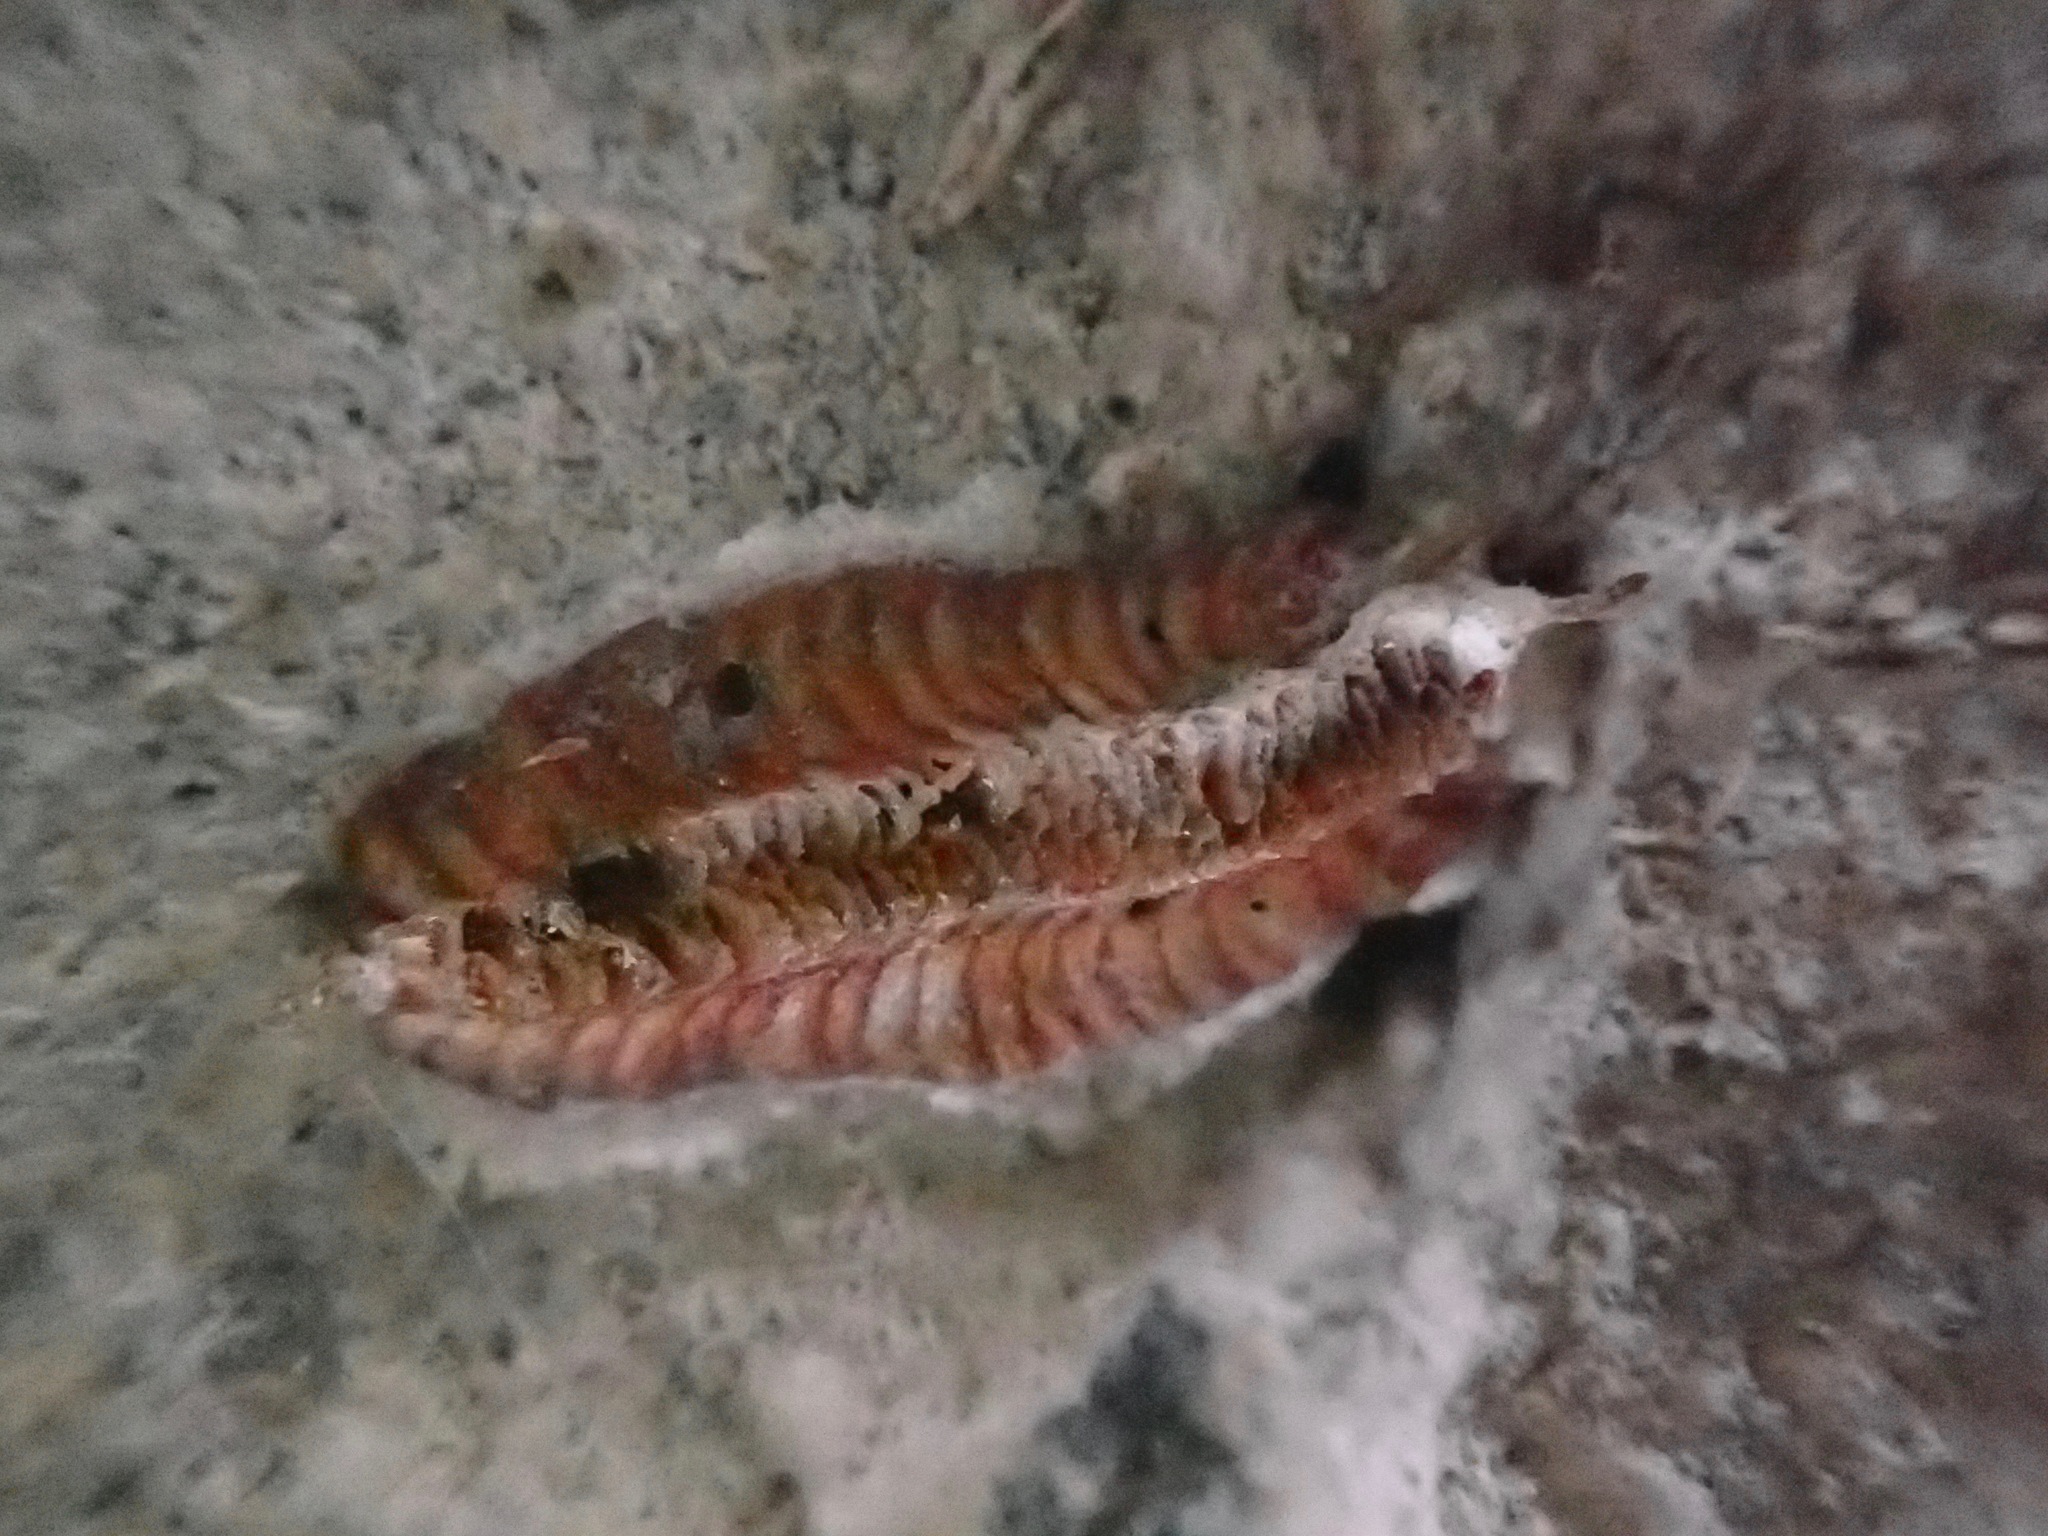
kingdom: Animalia
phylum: Arthropoda
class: Insecta
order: Mantodea
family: Miomantidae
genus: Miomantis
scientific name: Miomantis caffra
